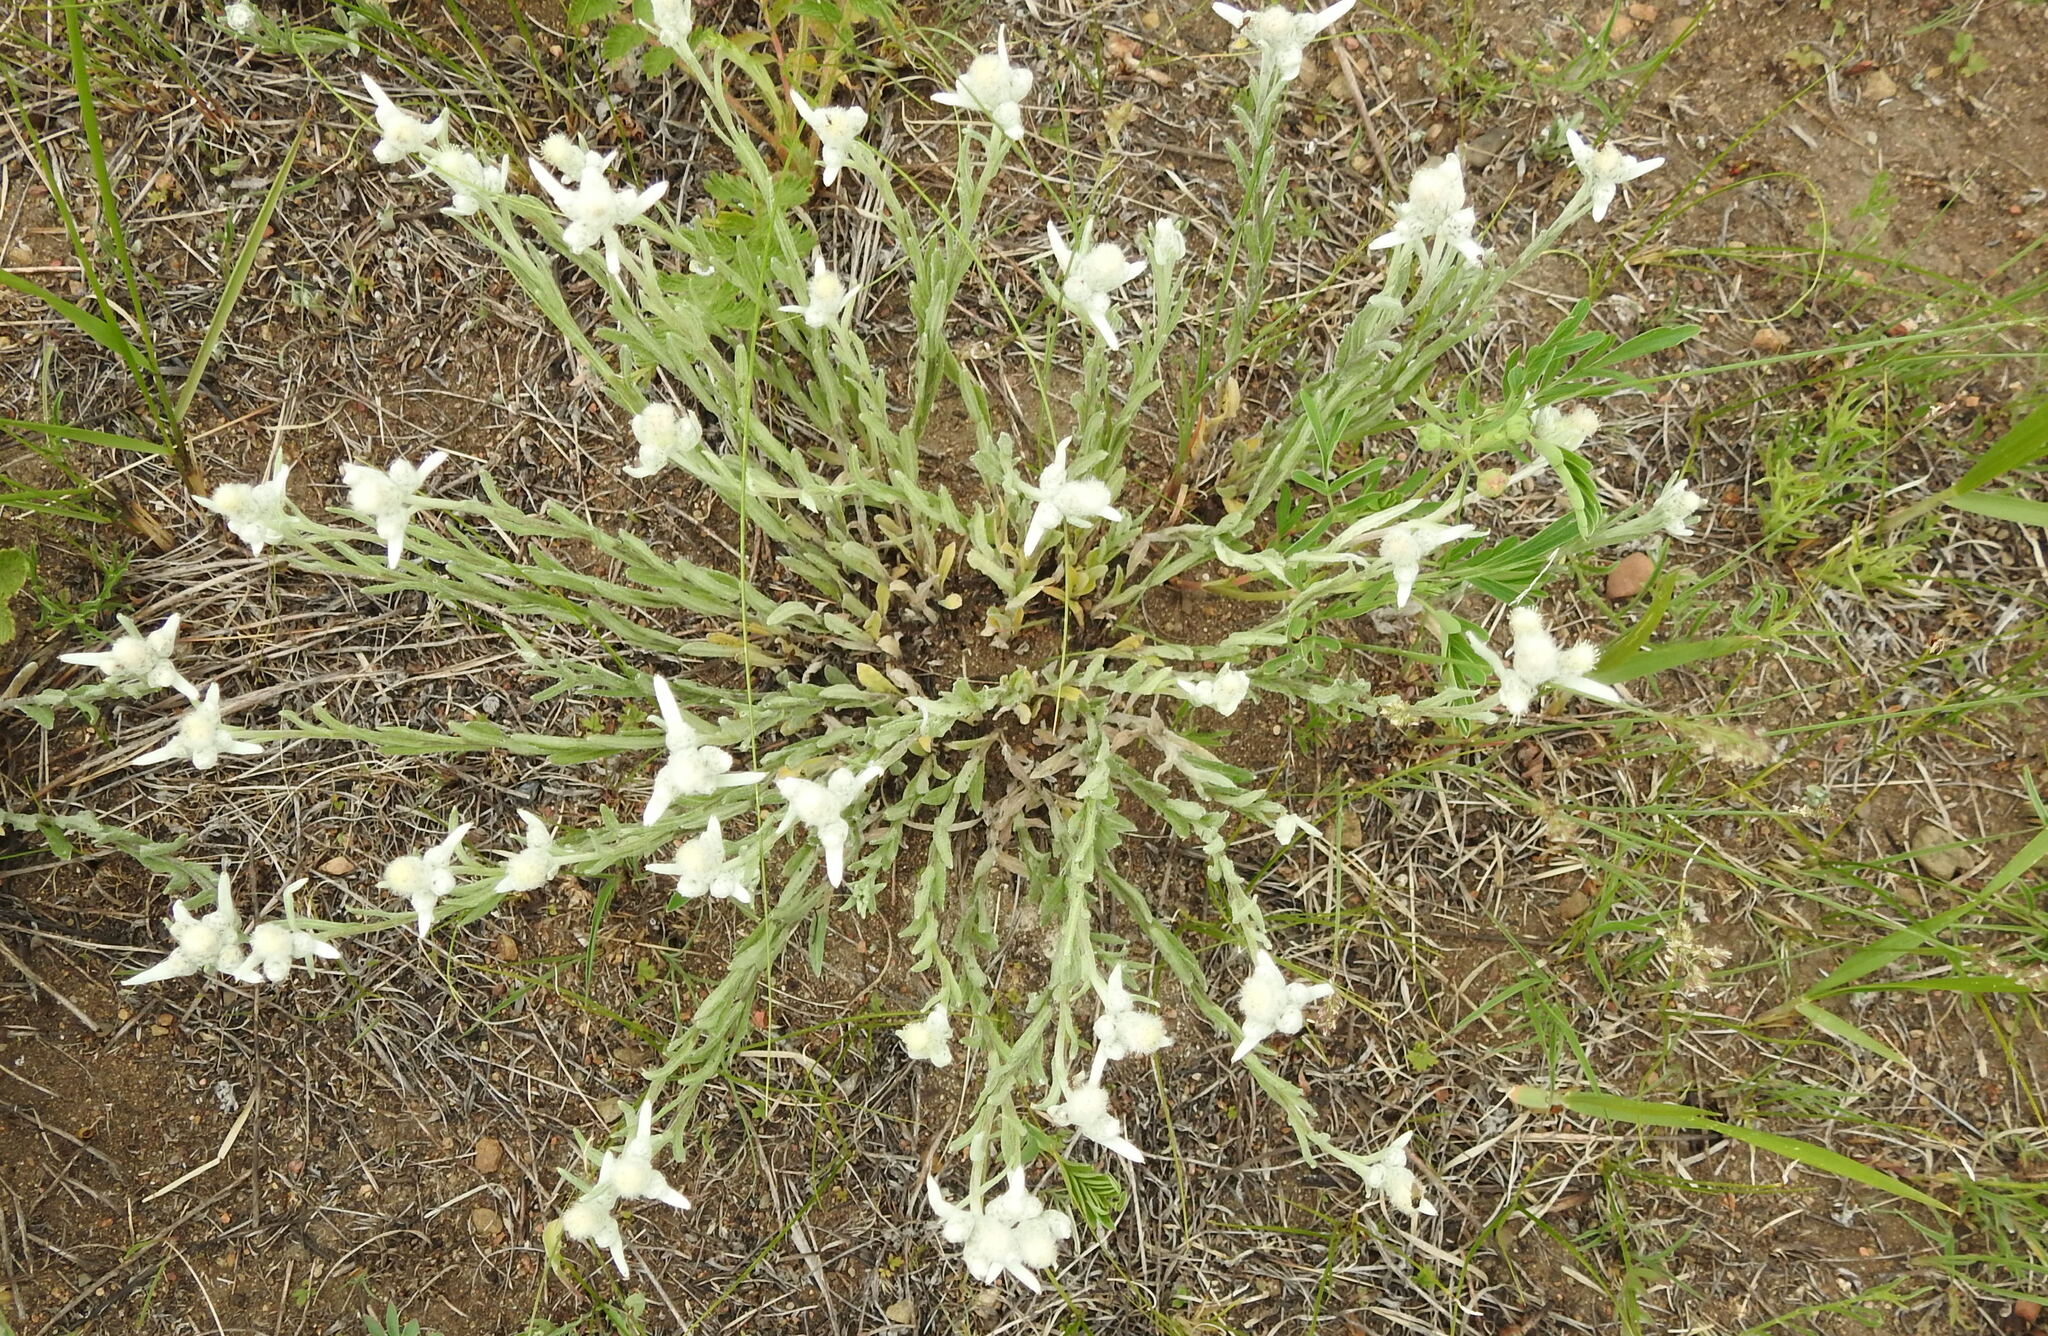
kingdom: Plantae
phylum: Tracheophyta
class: Magnoliopsida
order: Asterales
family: Asteraceae
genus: Leontopodium
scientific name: Leontopodium leontopodioides
